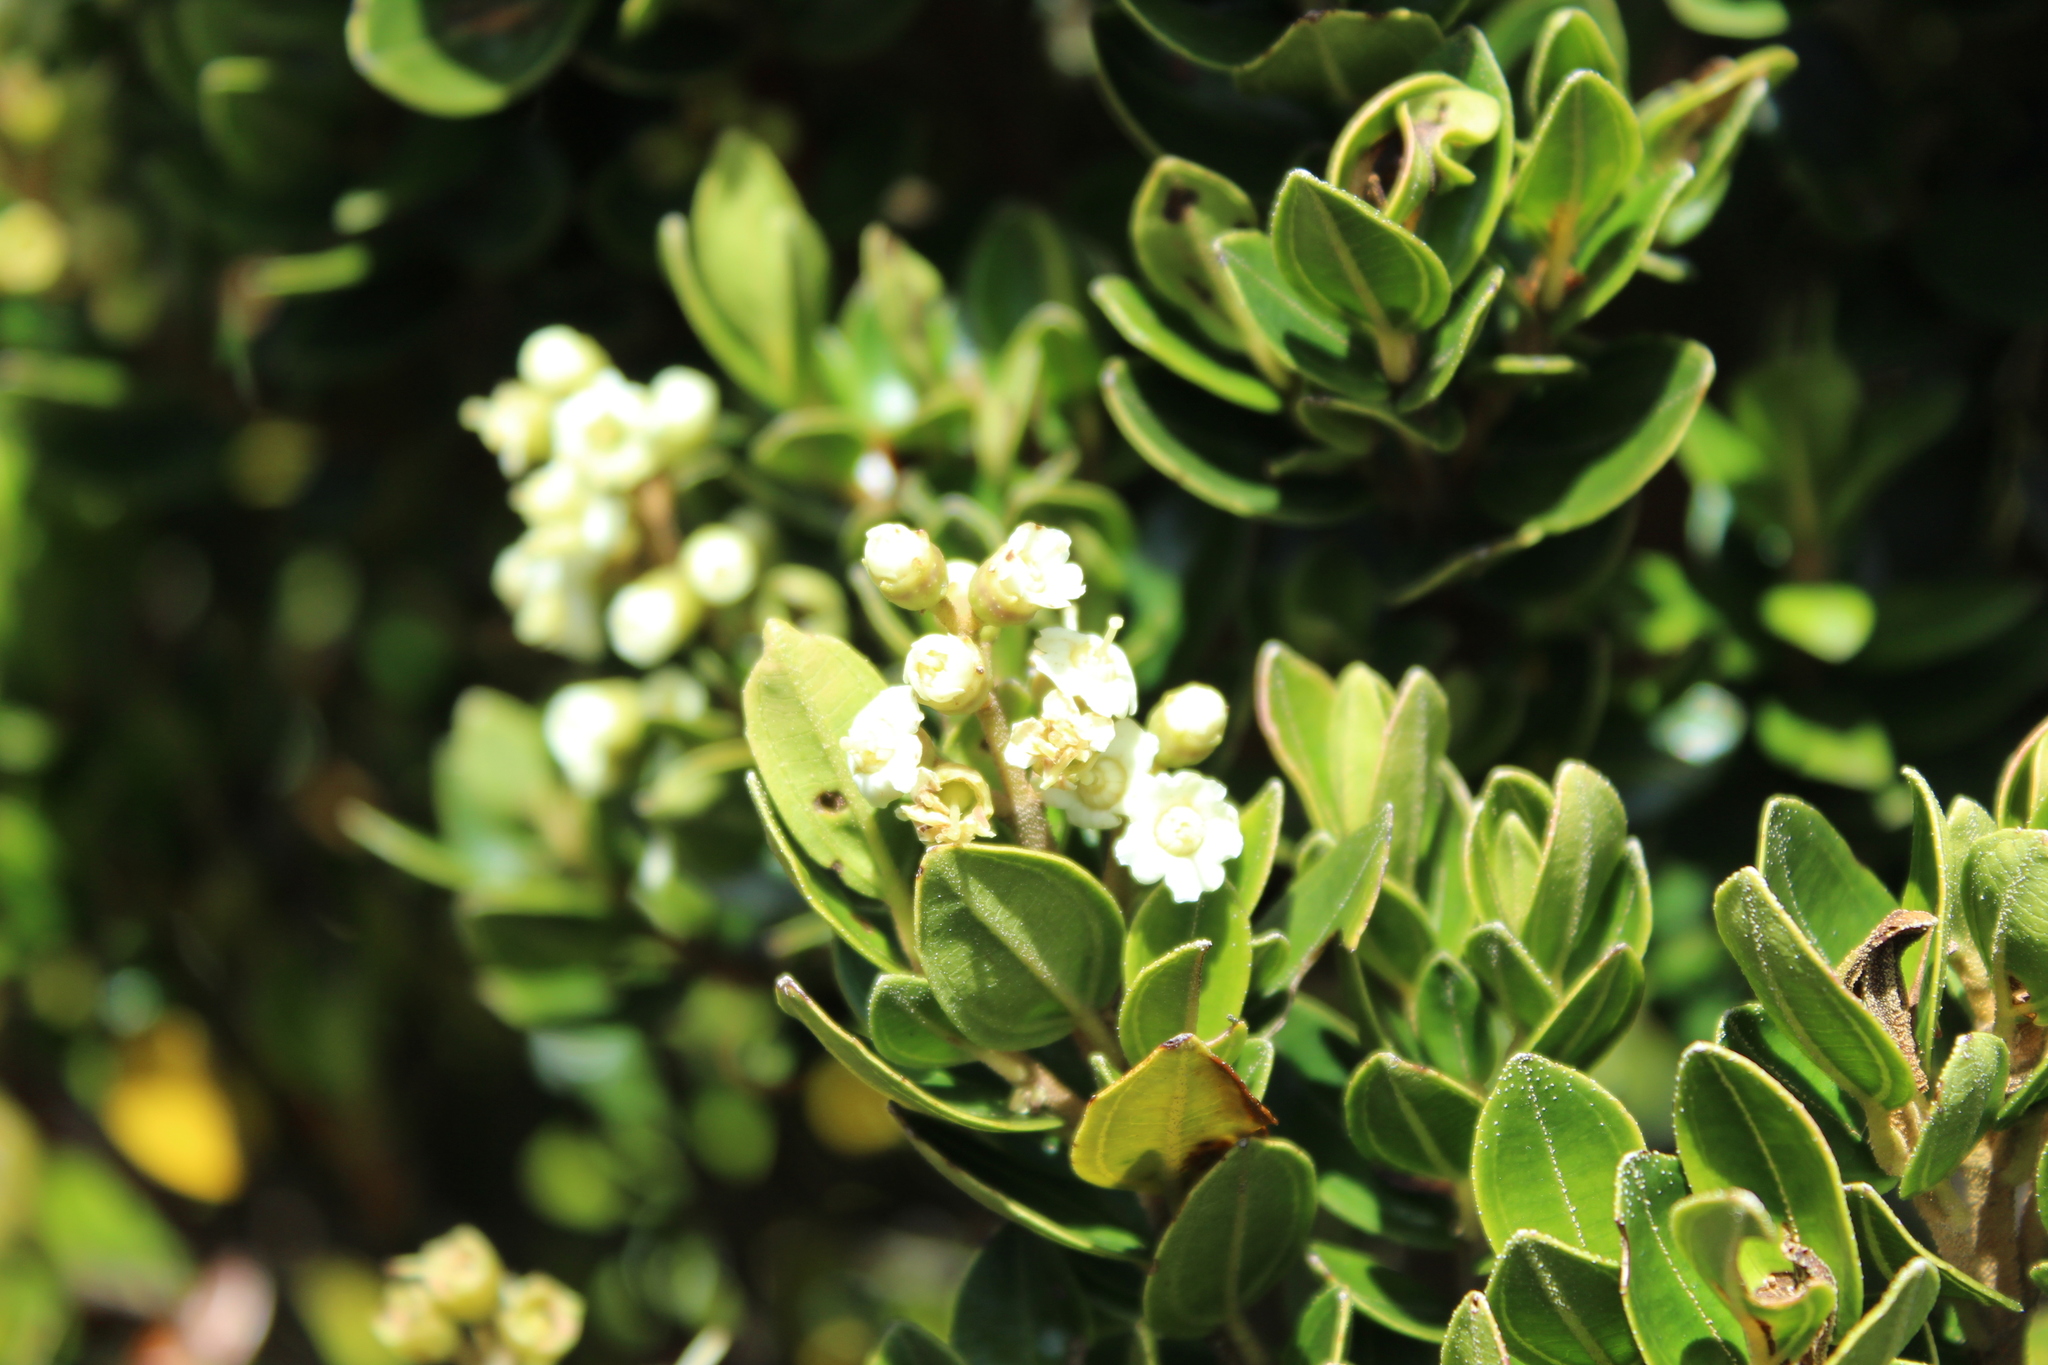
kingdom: Plantae
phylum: Tracheophyta
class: Magnoliopsida
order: Myrtales
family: Melastomataceae
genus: Miconia
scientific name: Miconia summa
